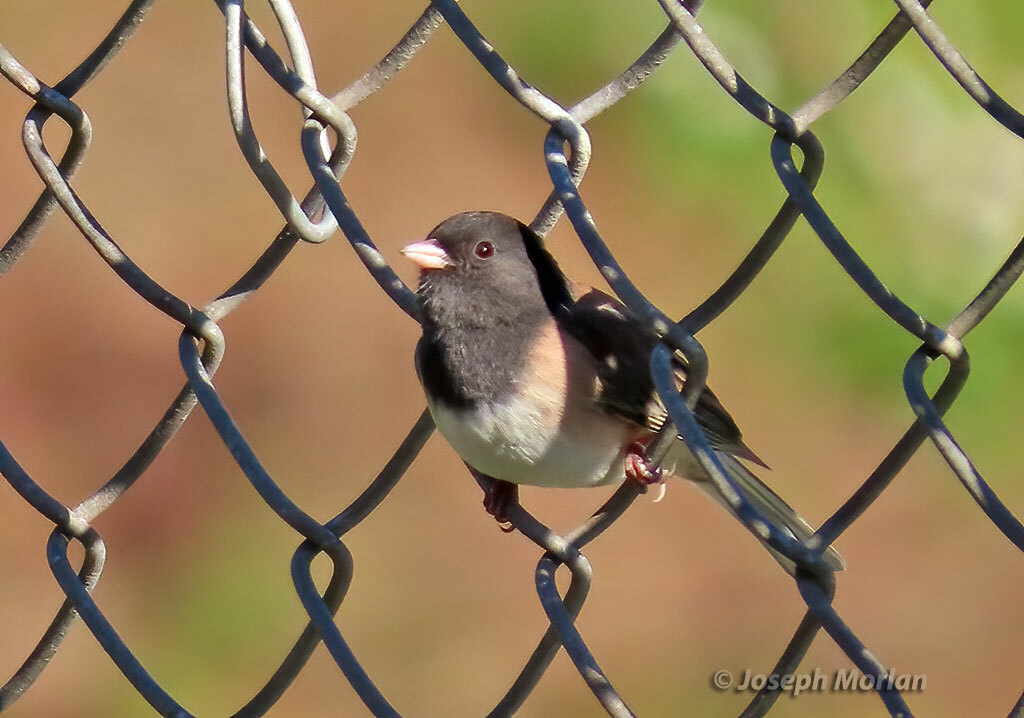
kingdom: Animalia
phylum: Chordata
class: Aves
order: Passeriformes
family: Passerellidae
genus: Junco
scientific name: Junco hyemalis
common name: Dark-eyed junco
